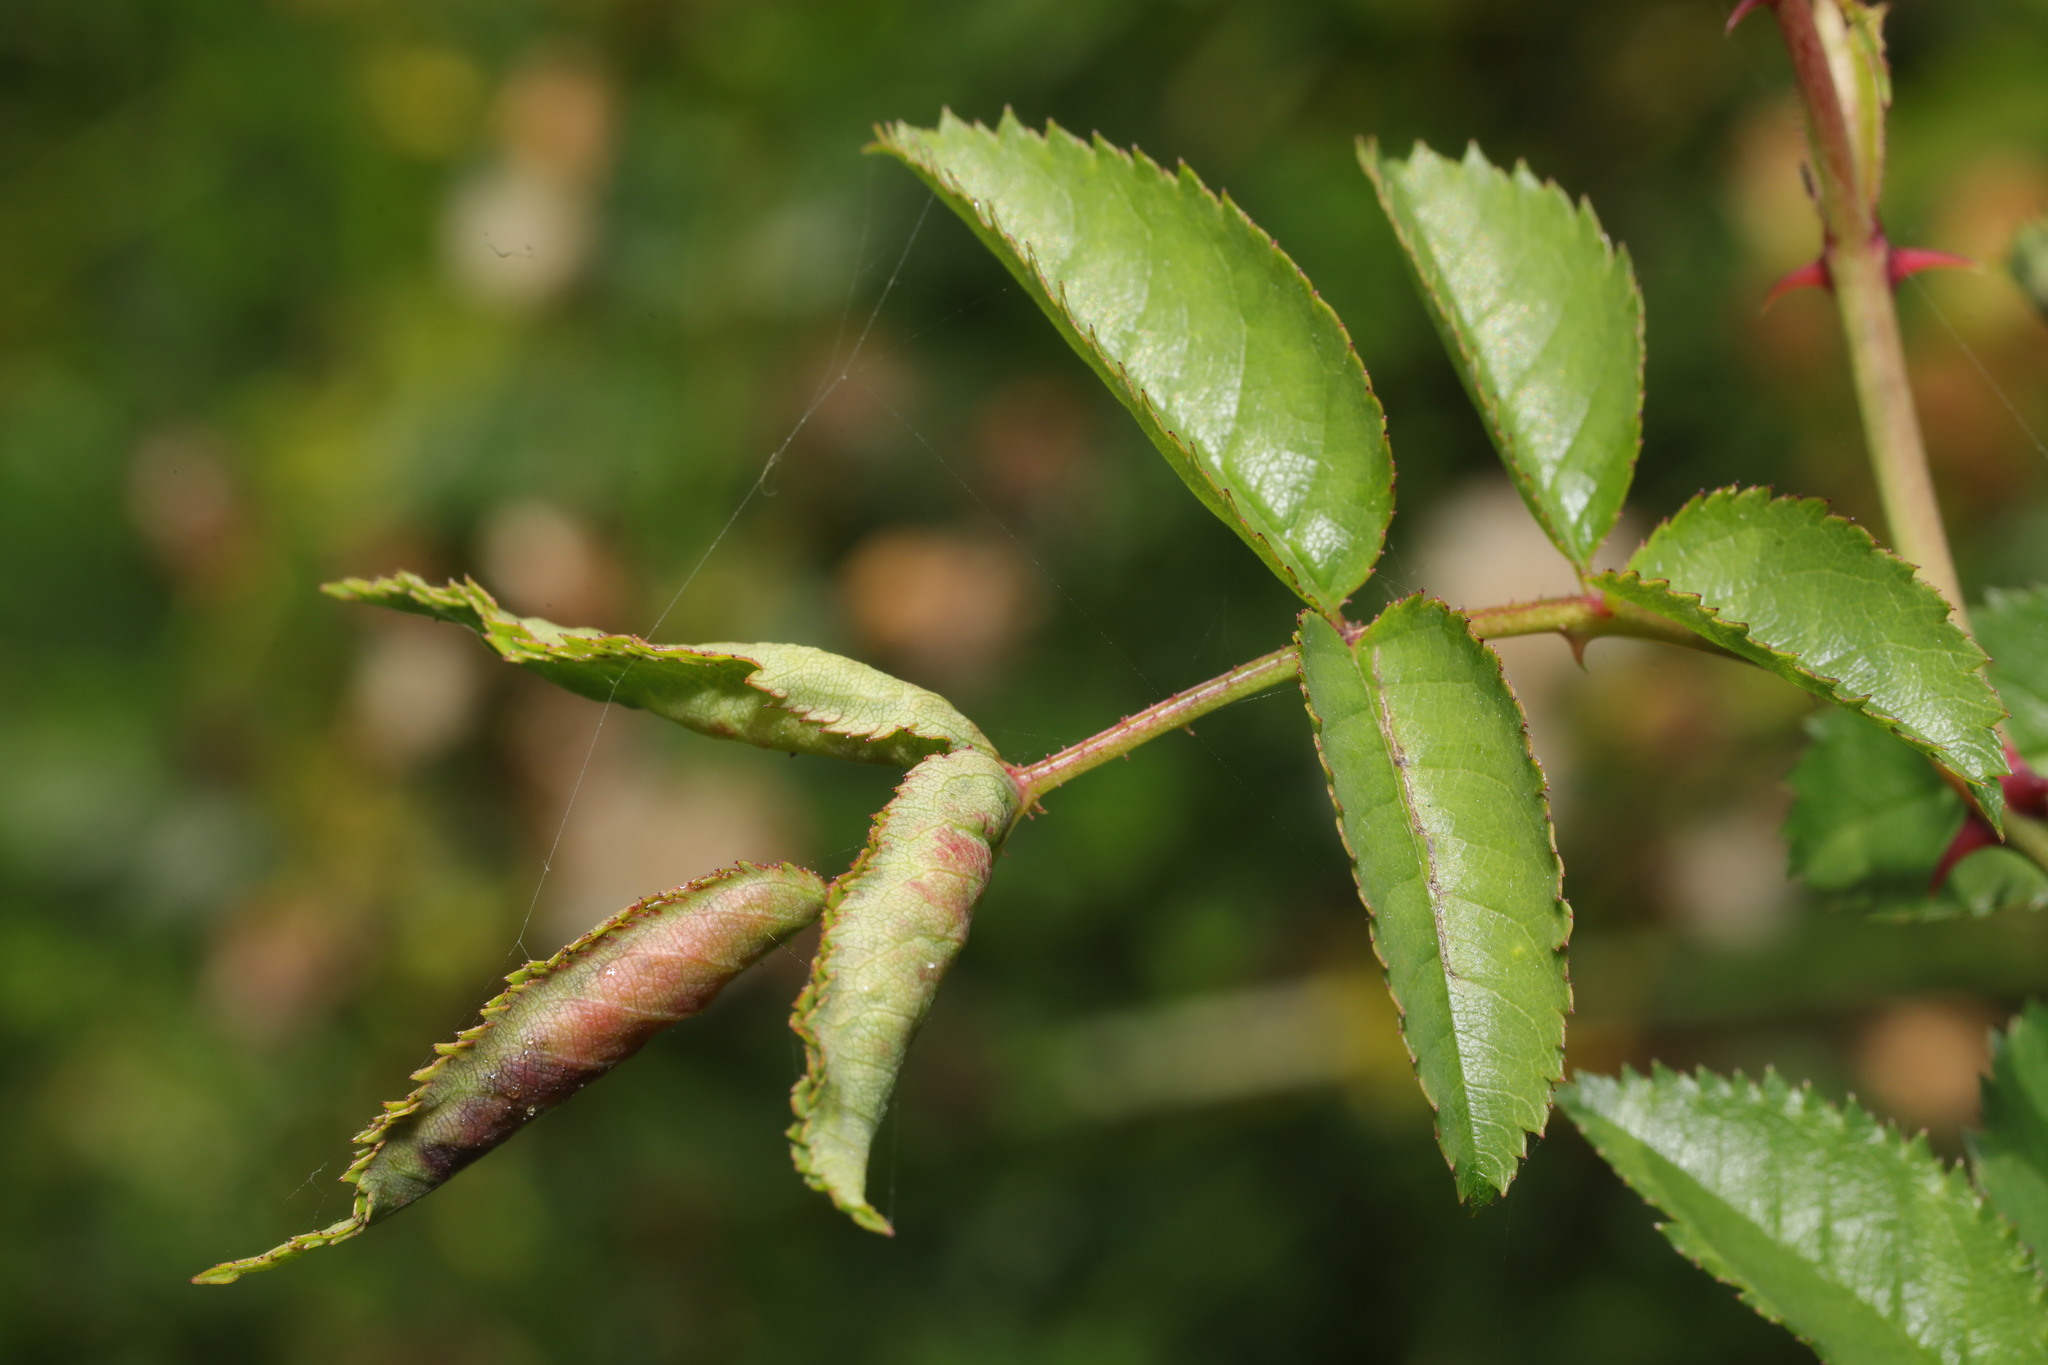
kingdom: Animalia
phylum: Arthropoda
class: Insecta
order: Diptera
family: Cecidomyiidae
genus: Wachtliella
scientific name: Wachtliella rosae
